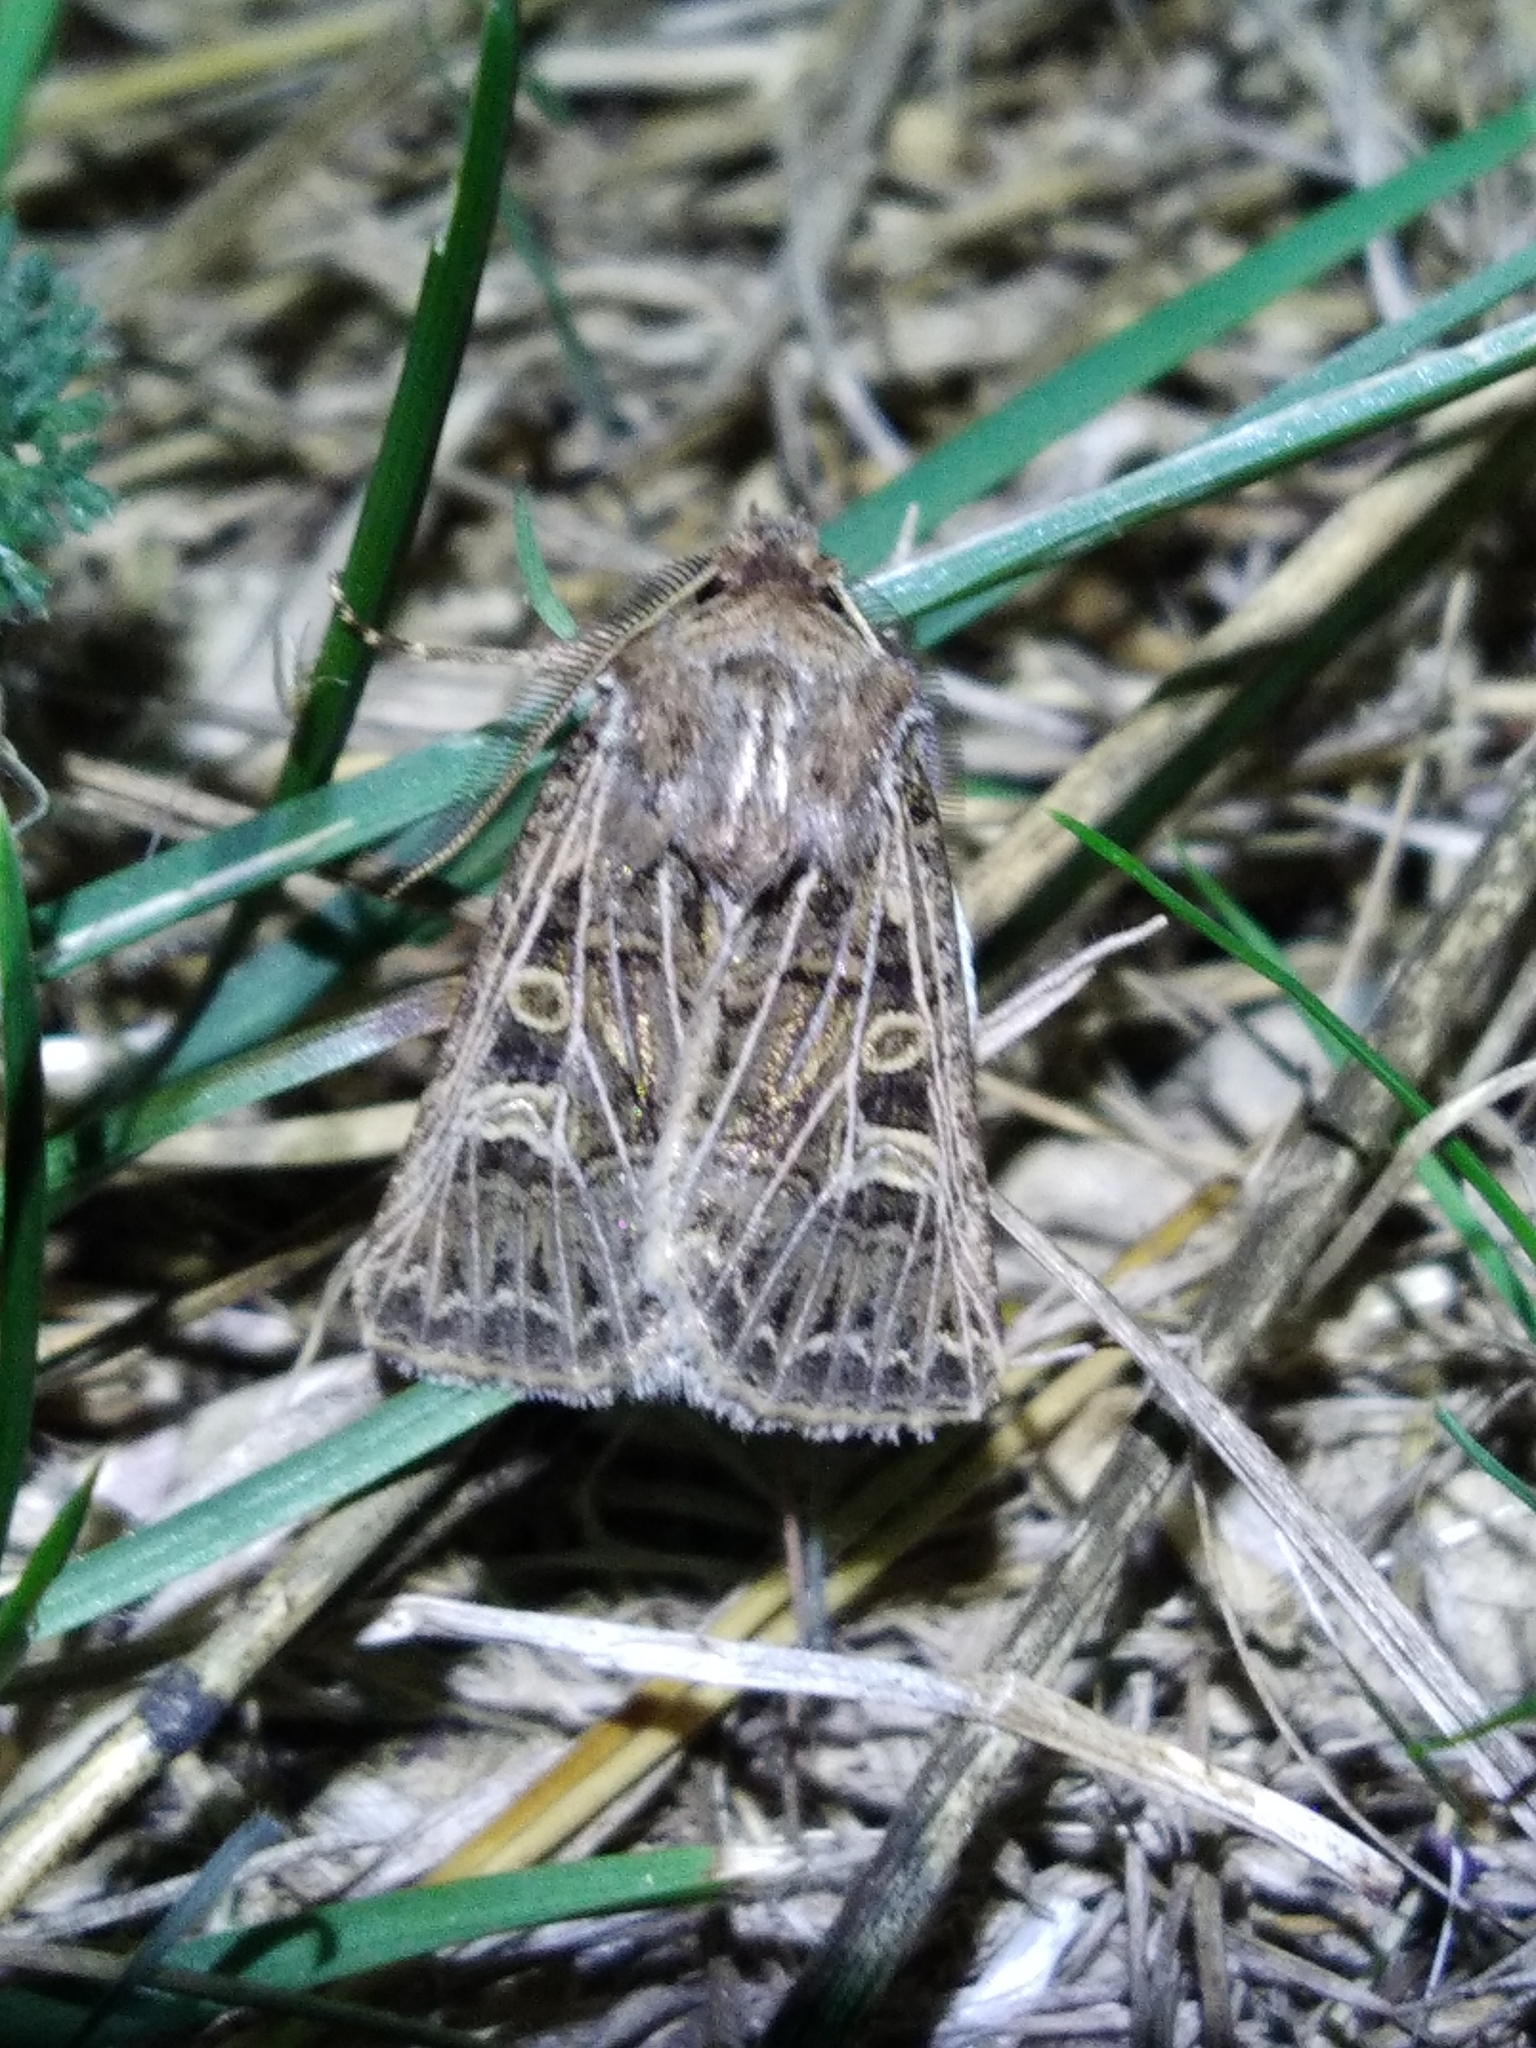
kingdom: Animalia
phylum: Arthropoda
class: Insecta
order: Lepidoptera
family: Noctuidae
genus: Tholera
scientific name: Tholera decimalis
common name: Feathered gothic
